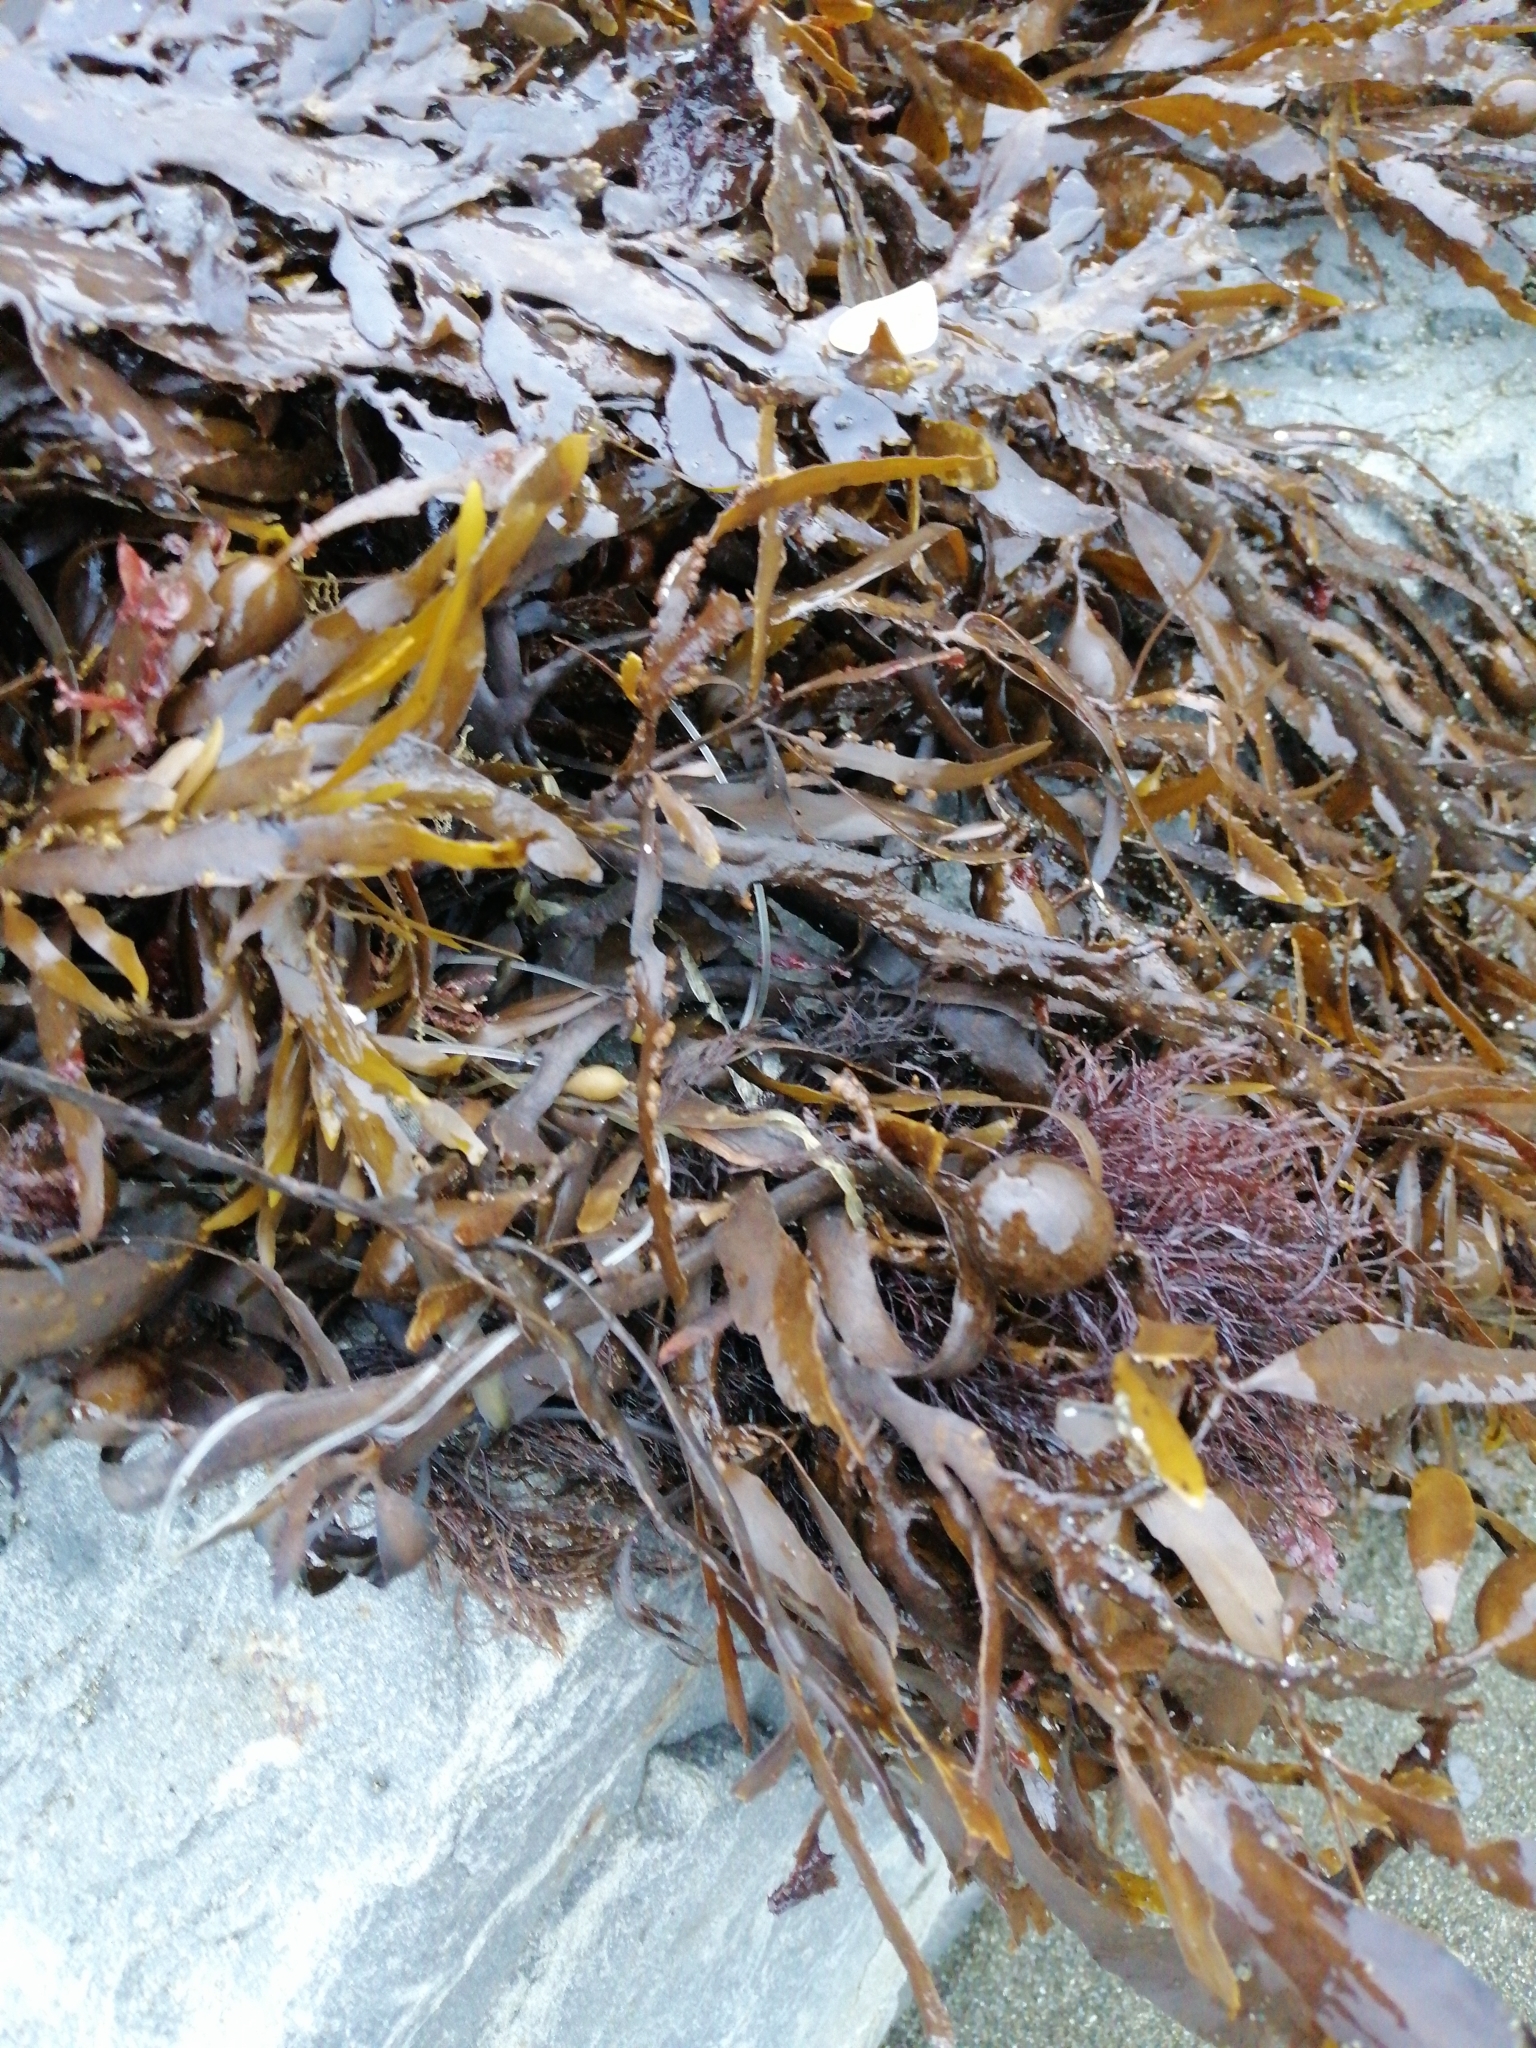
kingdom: Chromista
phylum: Ochrophyta
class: Phaeophyceae
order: Fucales
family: Sargassaceae
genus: Carpophyllum
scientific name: Carpophyllum maschalocarpum
